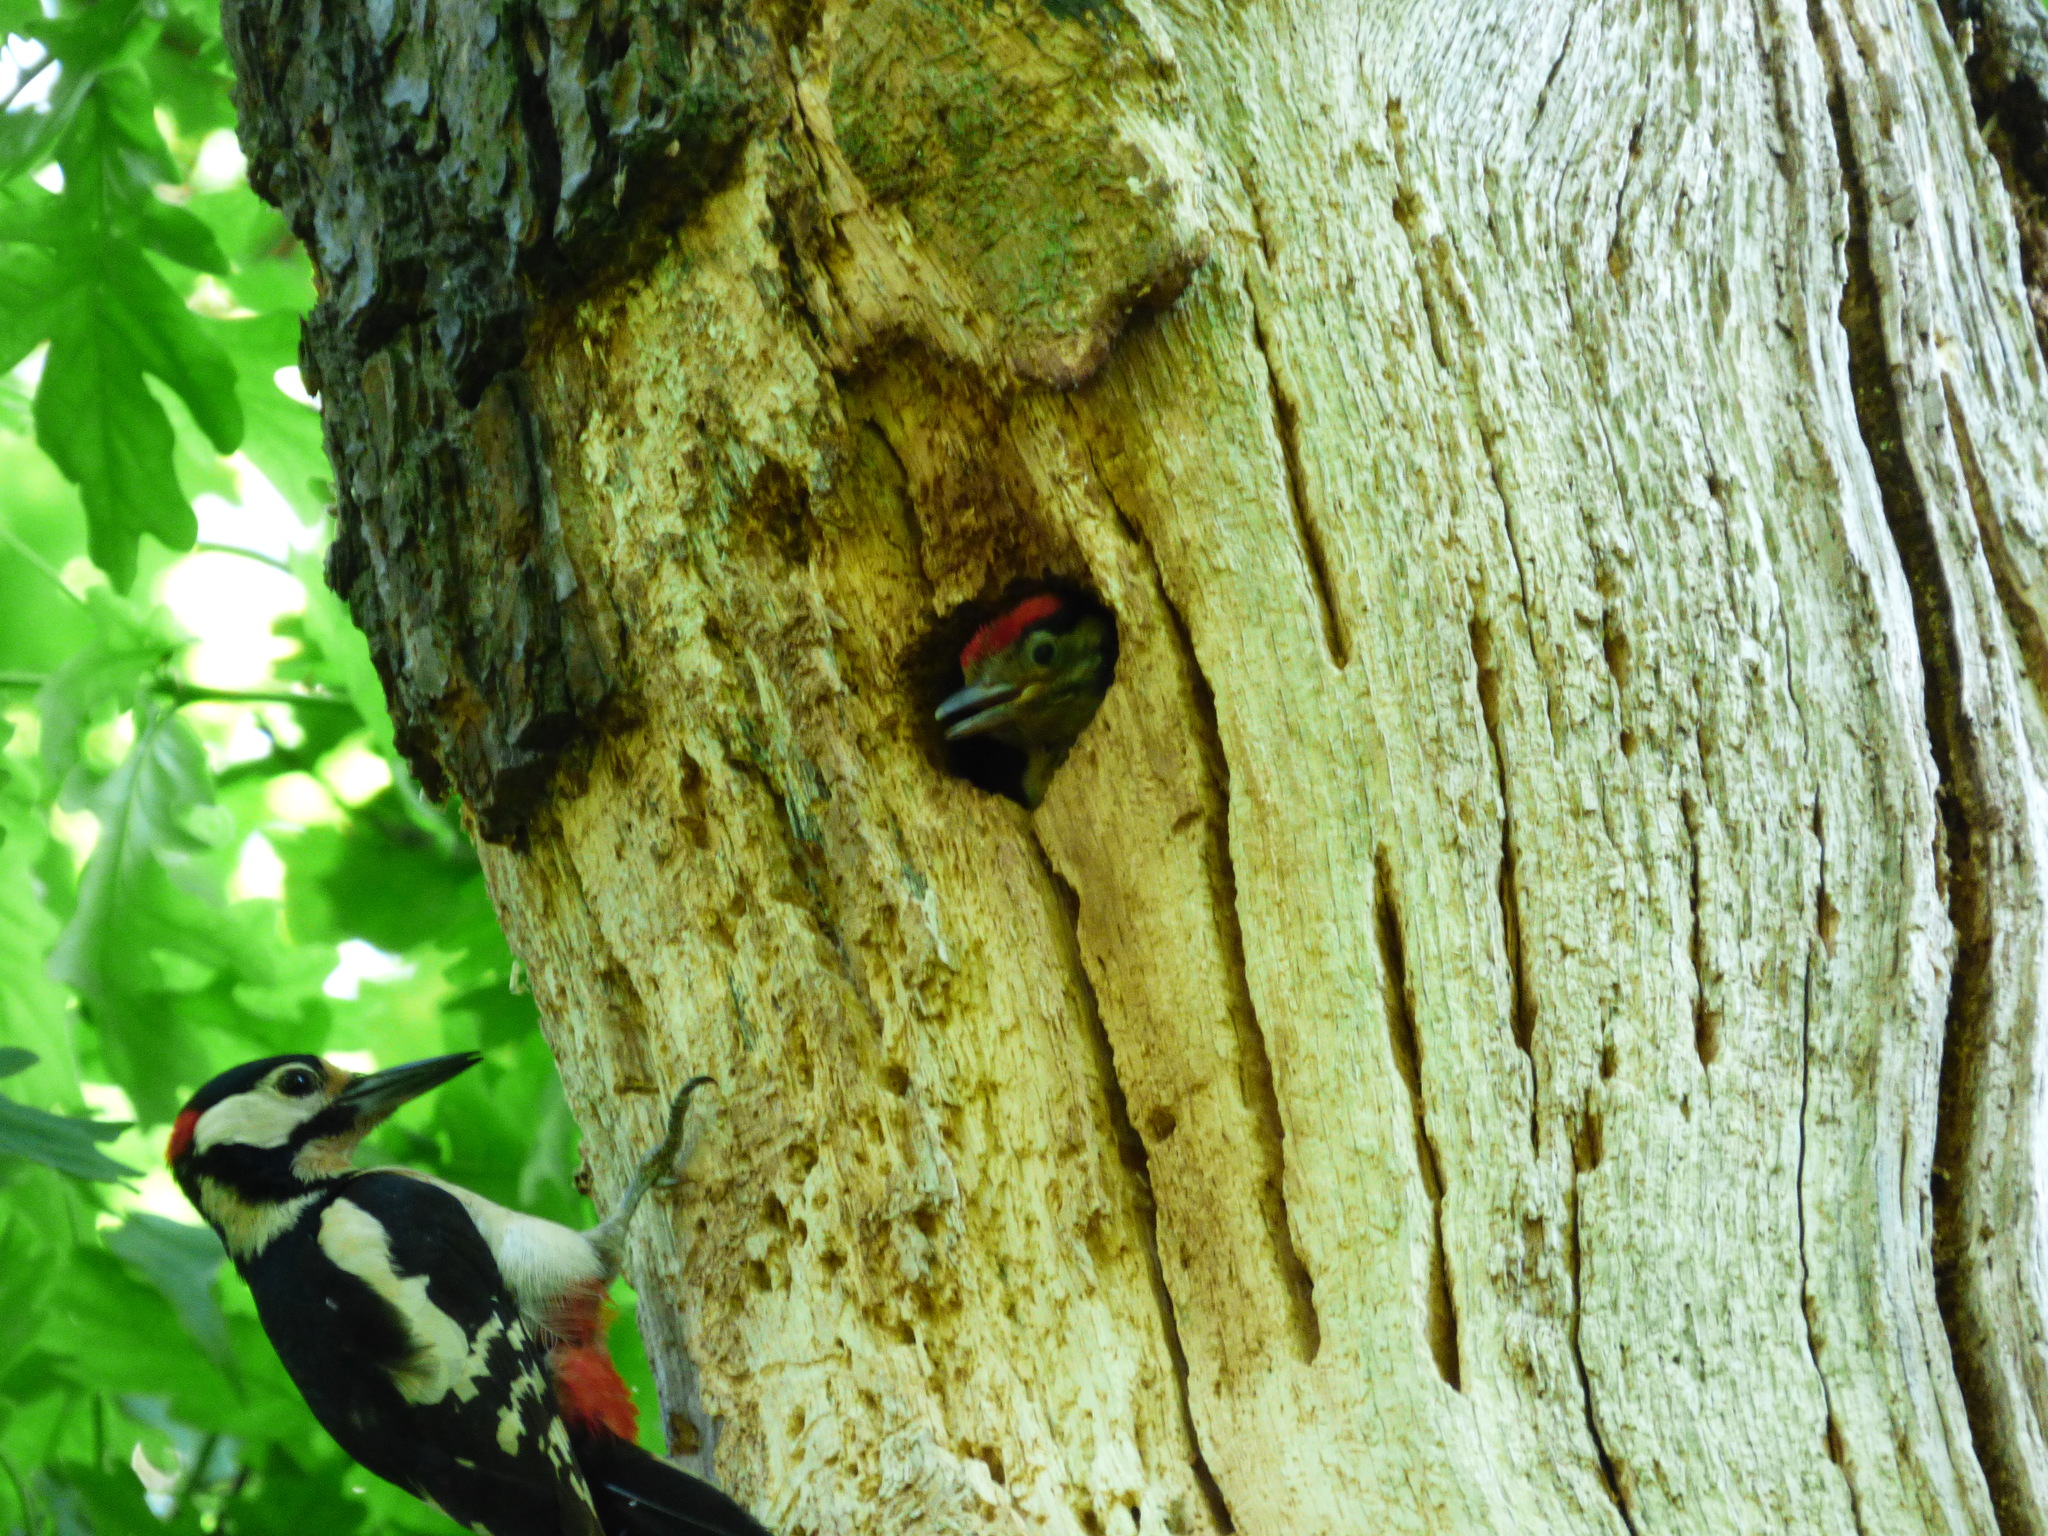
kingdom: Animalia
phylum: Chordata
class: Aves
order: Piciformes
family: Picidae
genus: Dendrocopos
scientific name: Dendrocopos major
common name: Great spotted woodpecker
